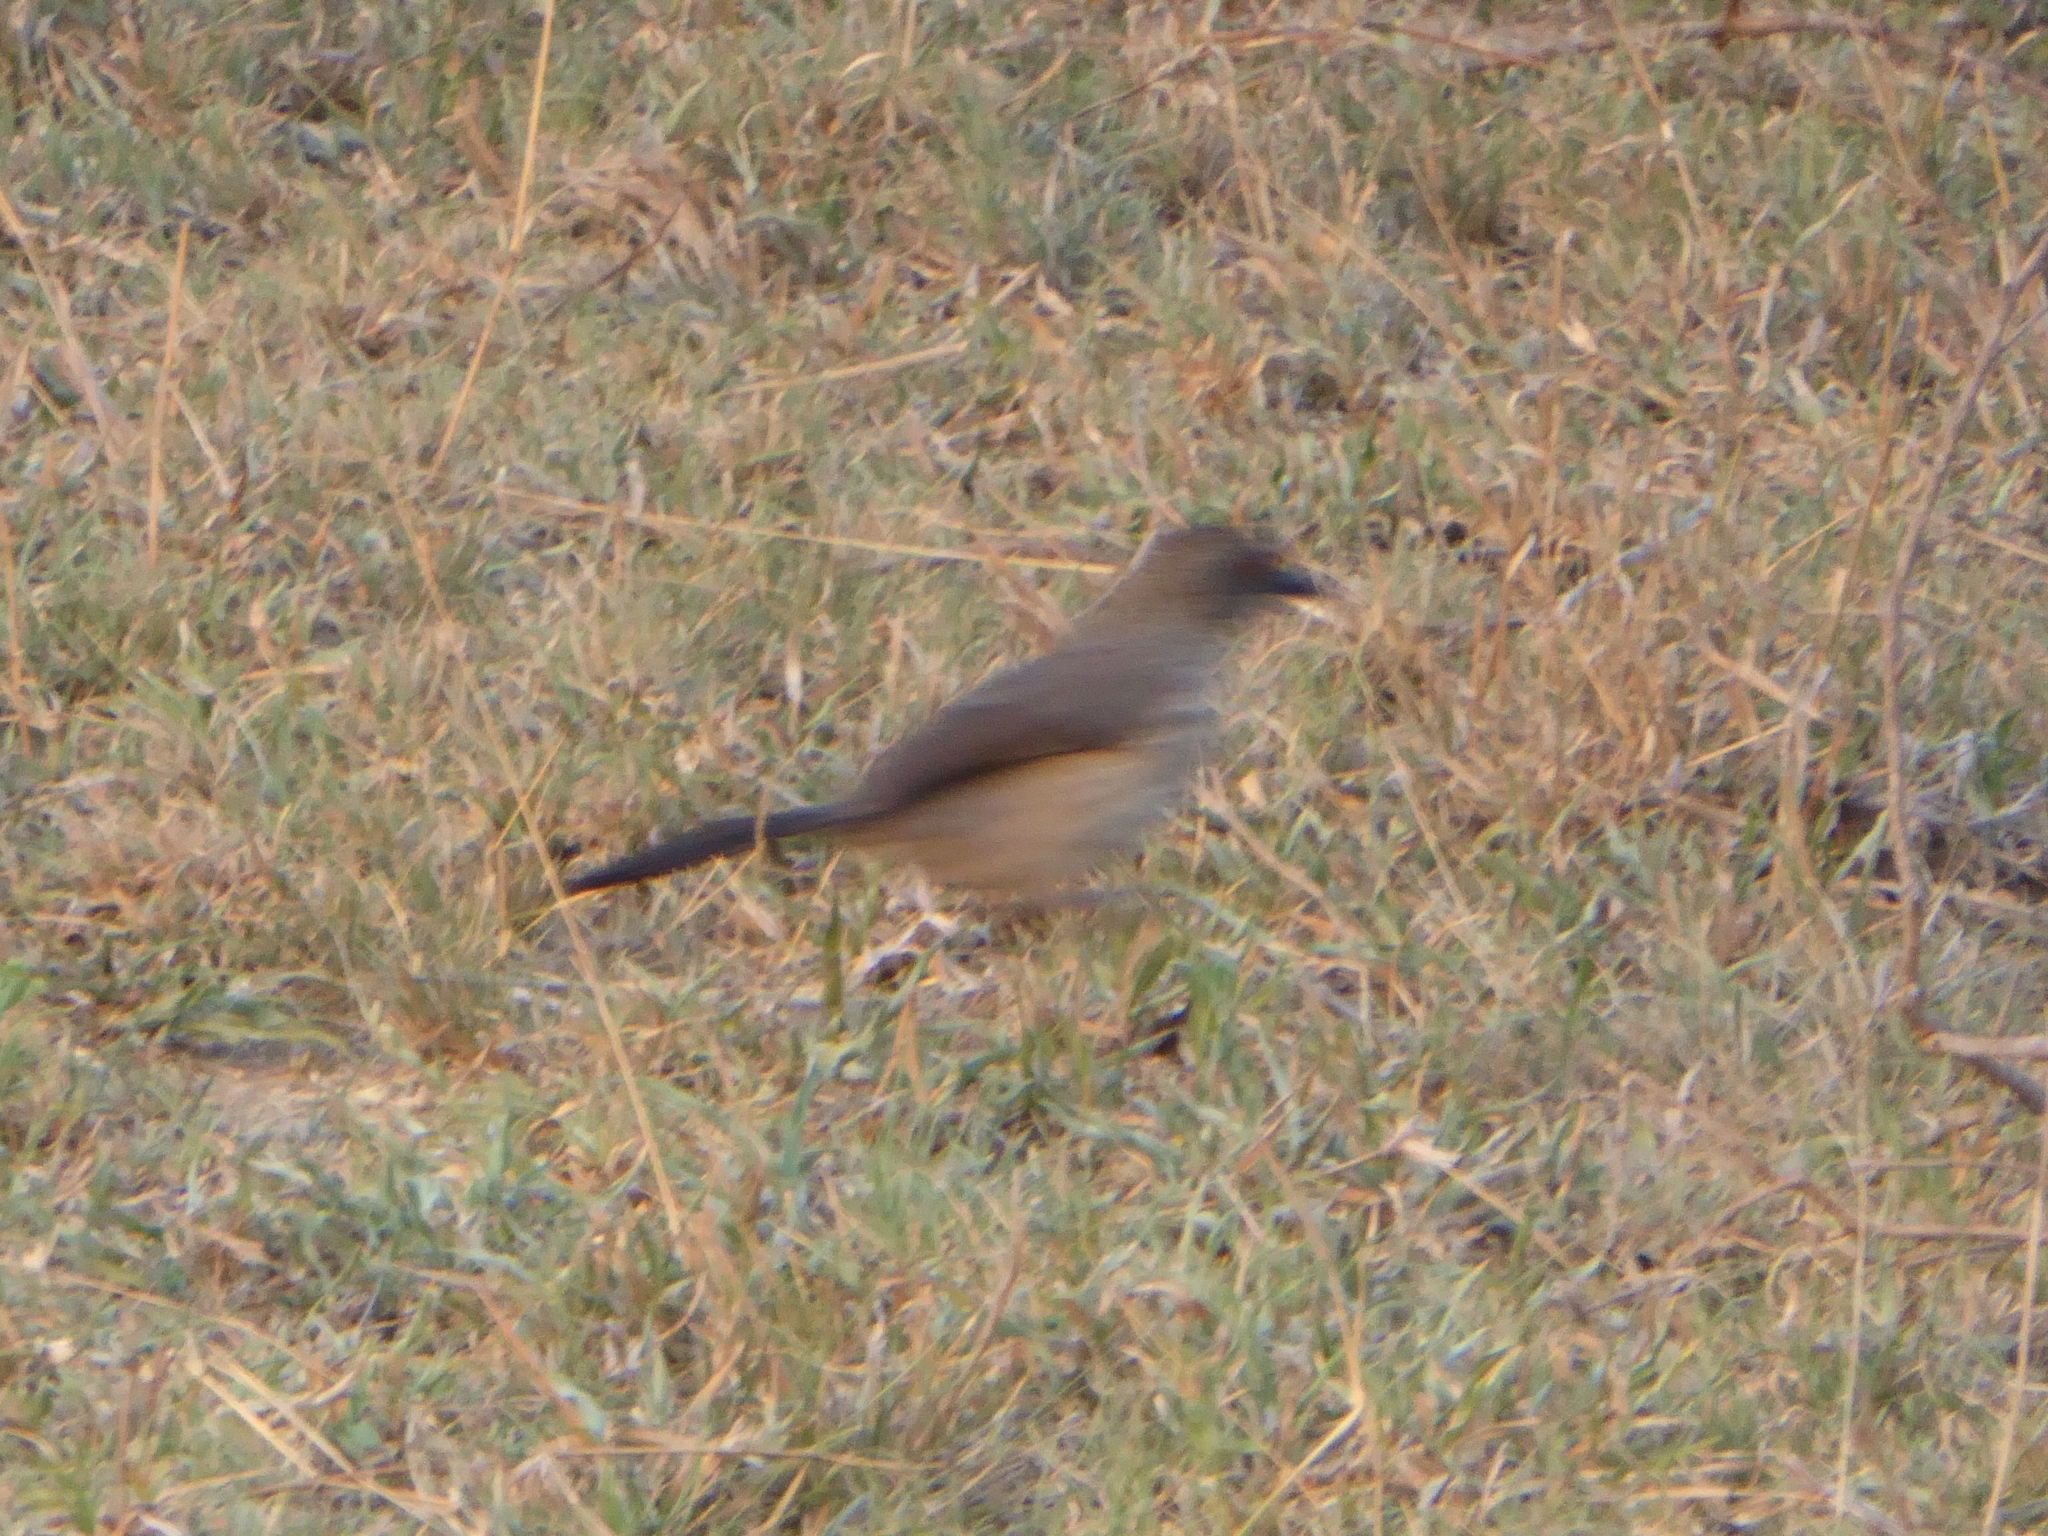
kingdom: Animalia
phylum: Chordata
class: Aves
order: Passeriformes
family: Leiothrichidae
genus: Turdoides
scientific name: Turdoides jardineii
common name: Arrow-marked babbler
